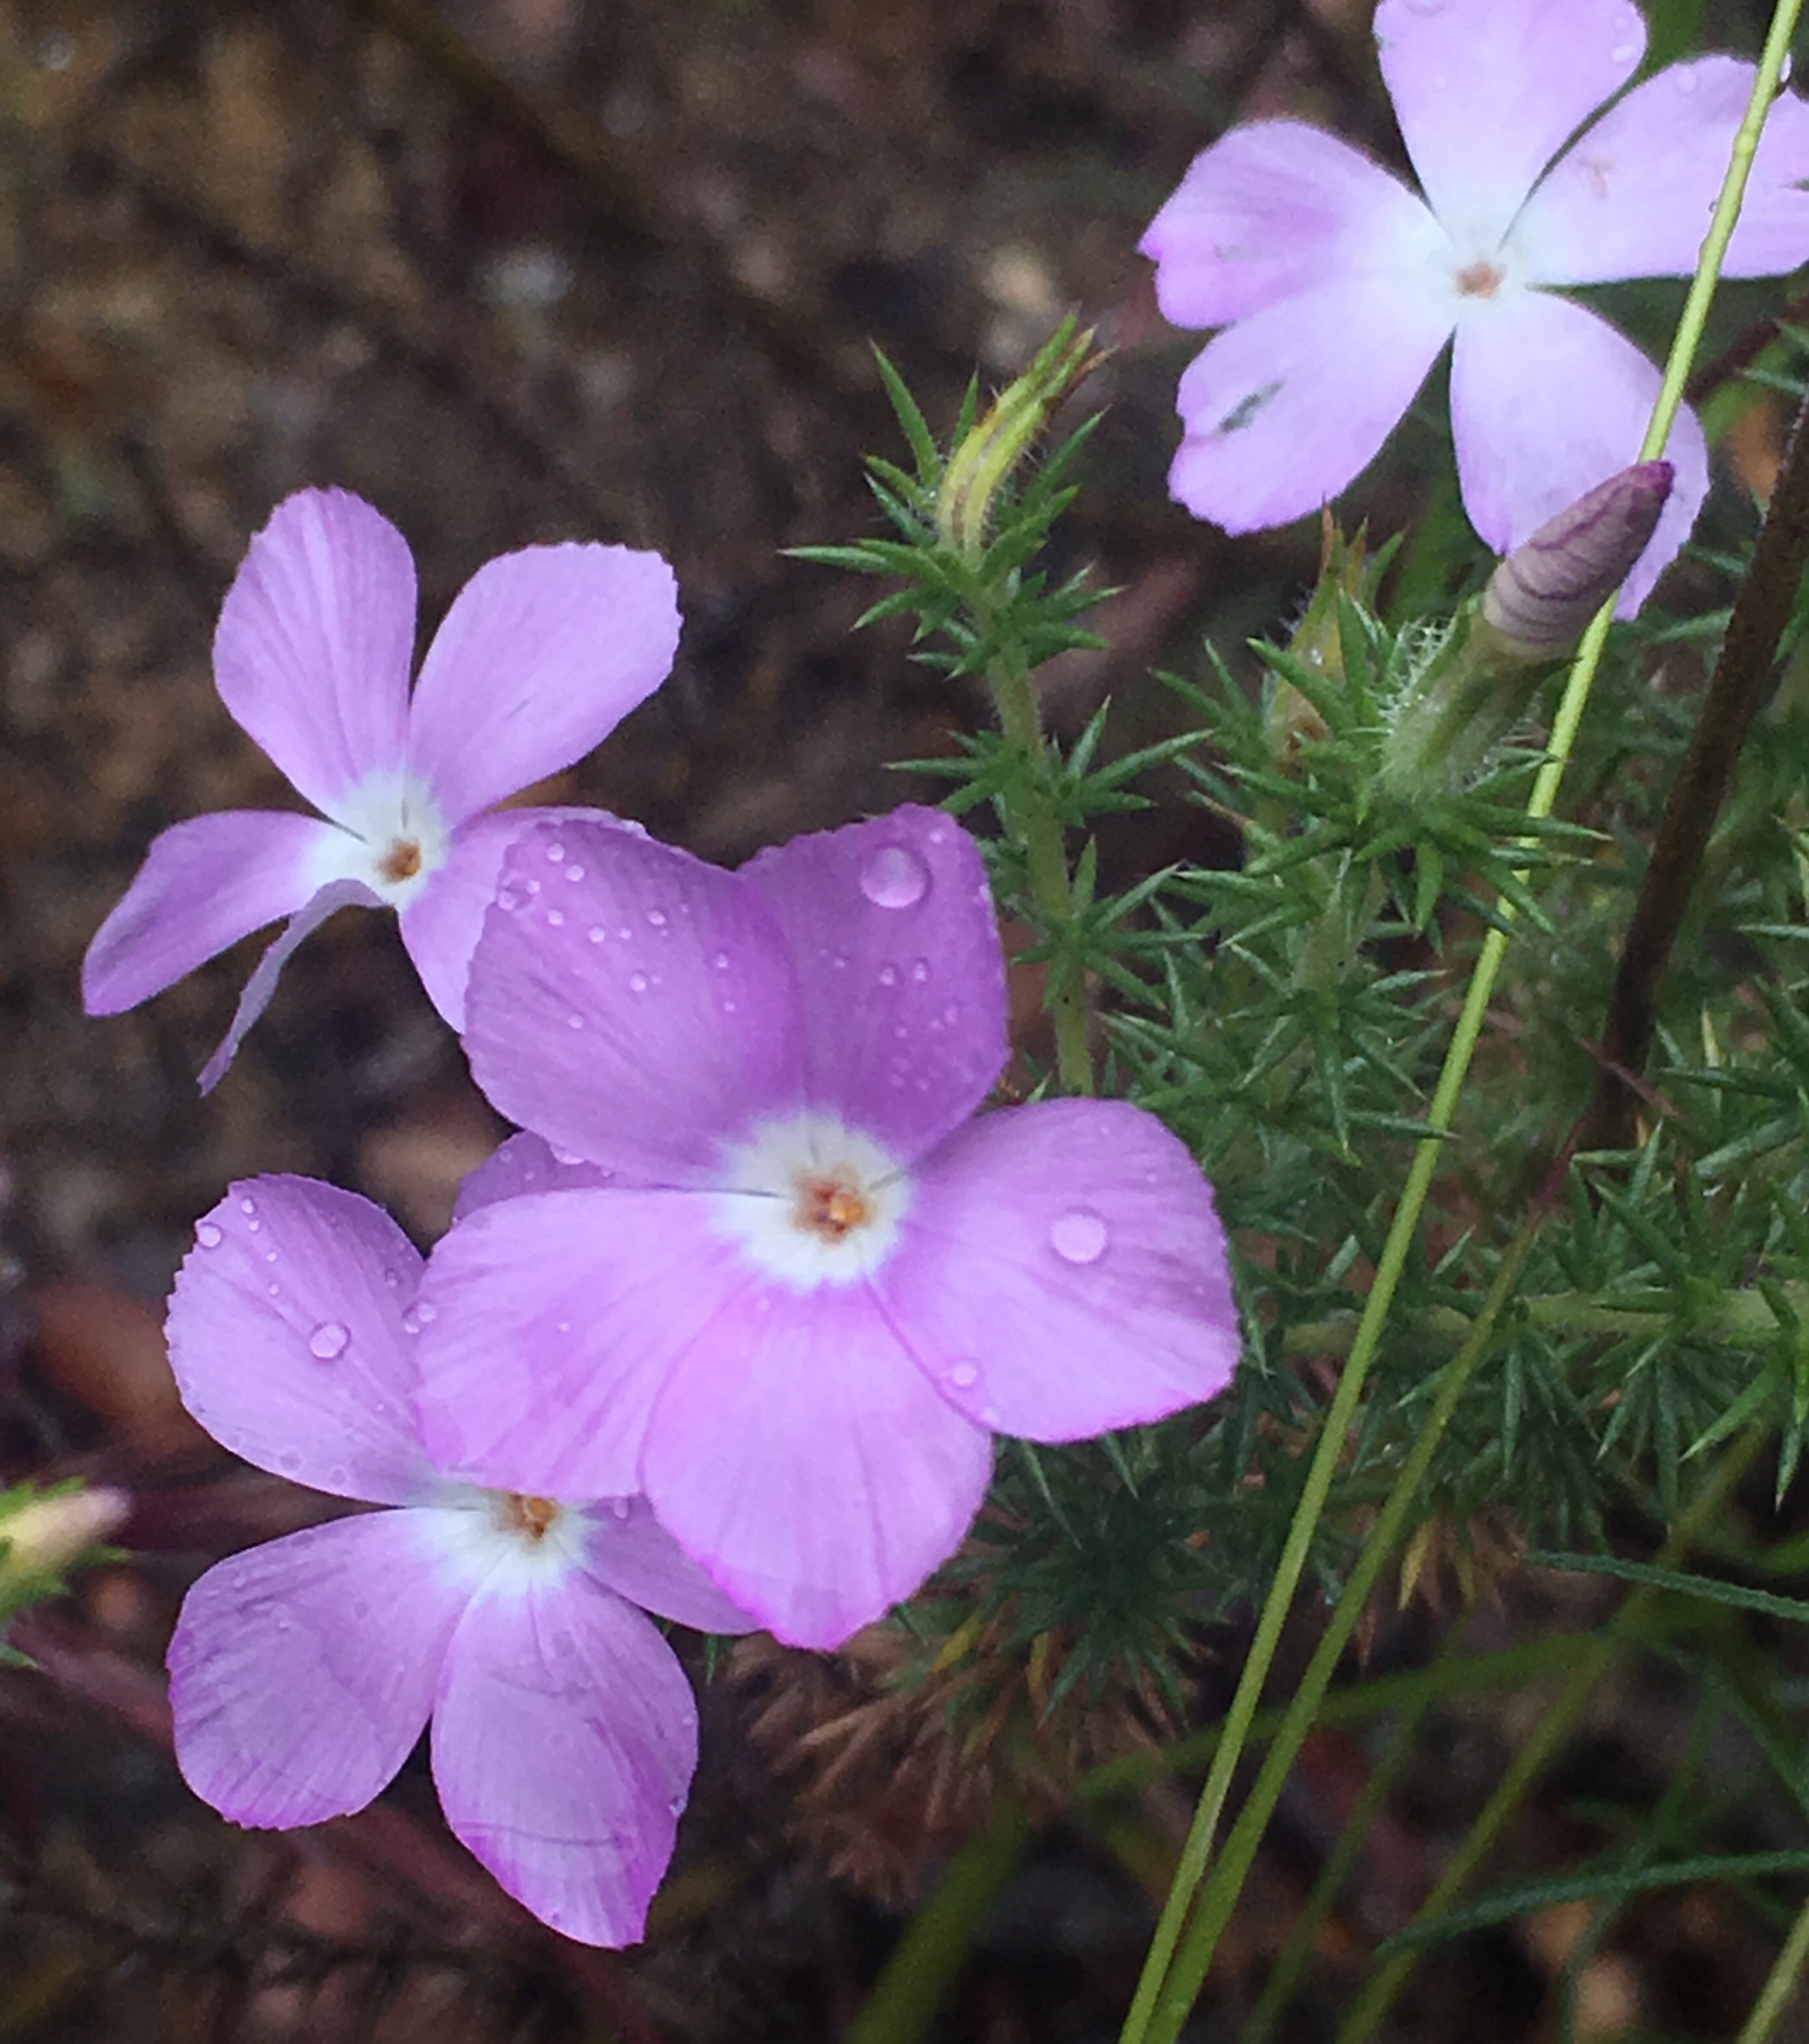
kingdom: Plantae
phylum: Tracheophyta
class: Magnoliopsida
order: Ericales
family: Polemoniaceae
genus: Linanthus
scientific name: Linanthus californicus
